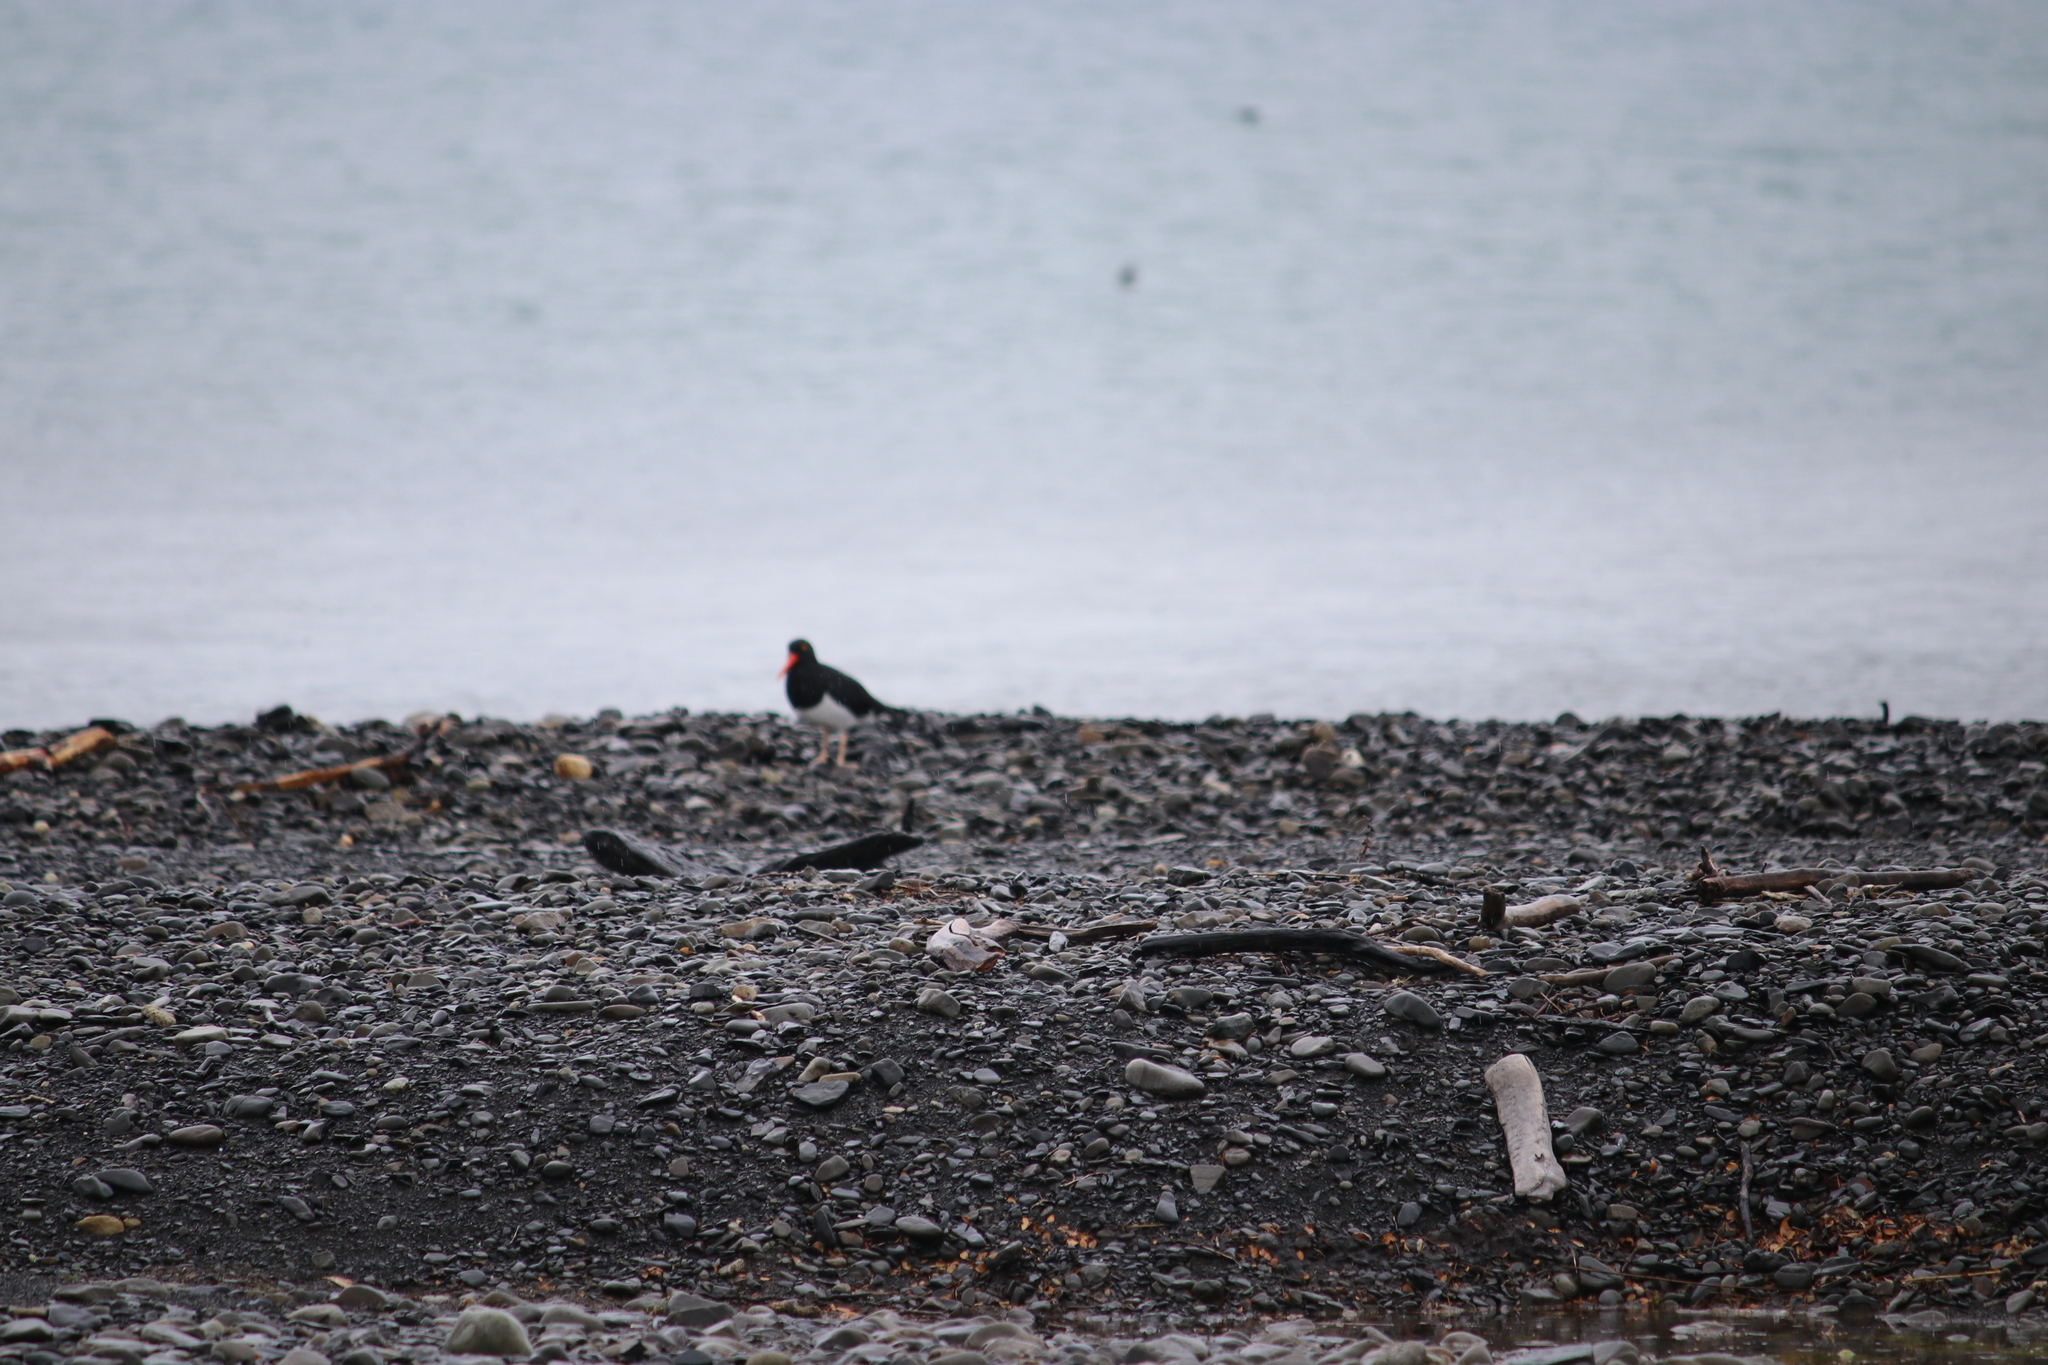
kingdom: Animalia
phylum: Chordata
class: Aves
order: Charadriiformes
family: Haematopodidae
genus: Haematopus
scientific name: Haematopus leucopodus
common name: Magellanic oystercatcher
